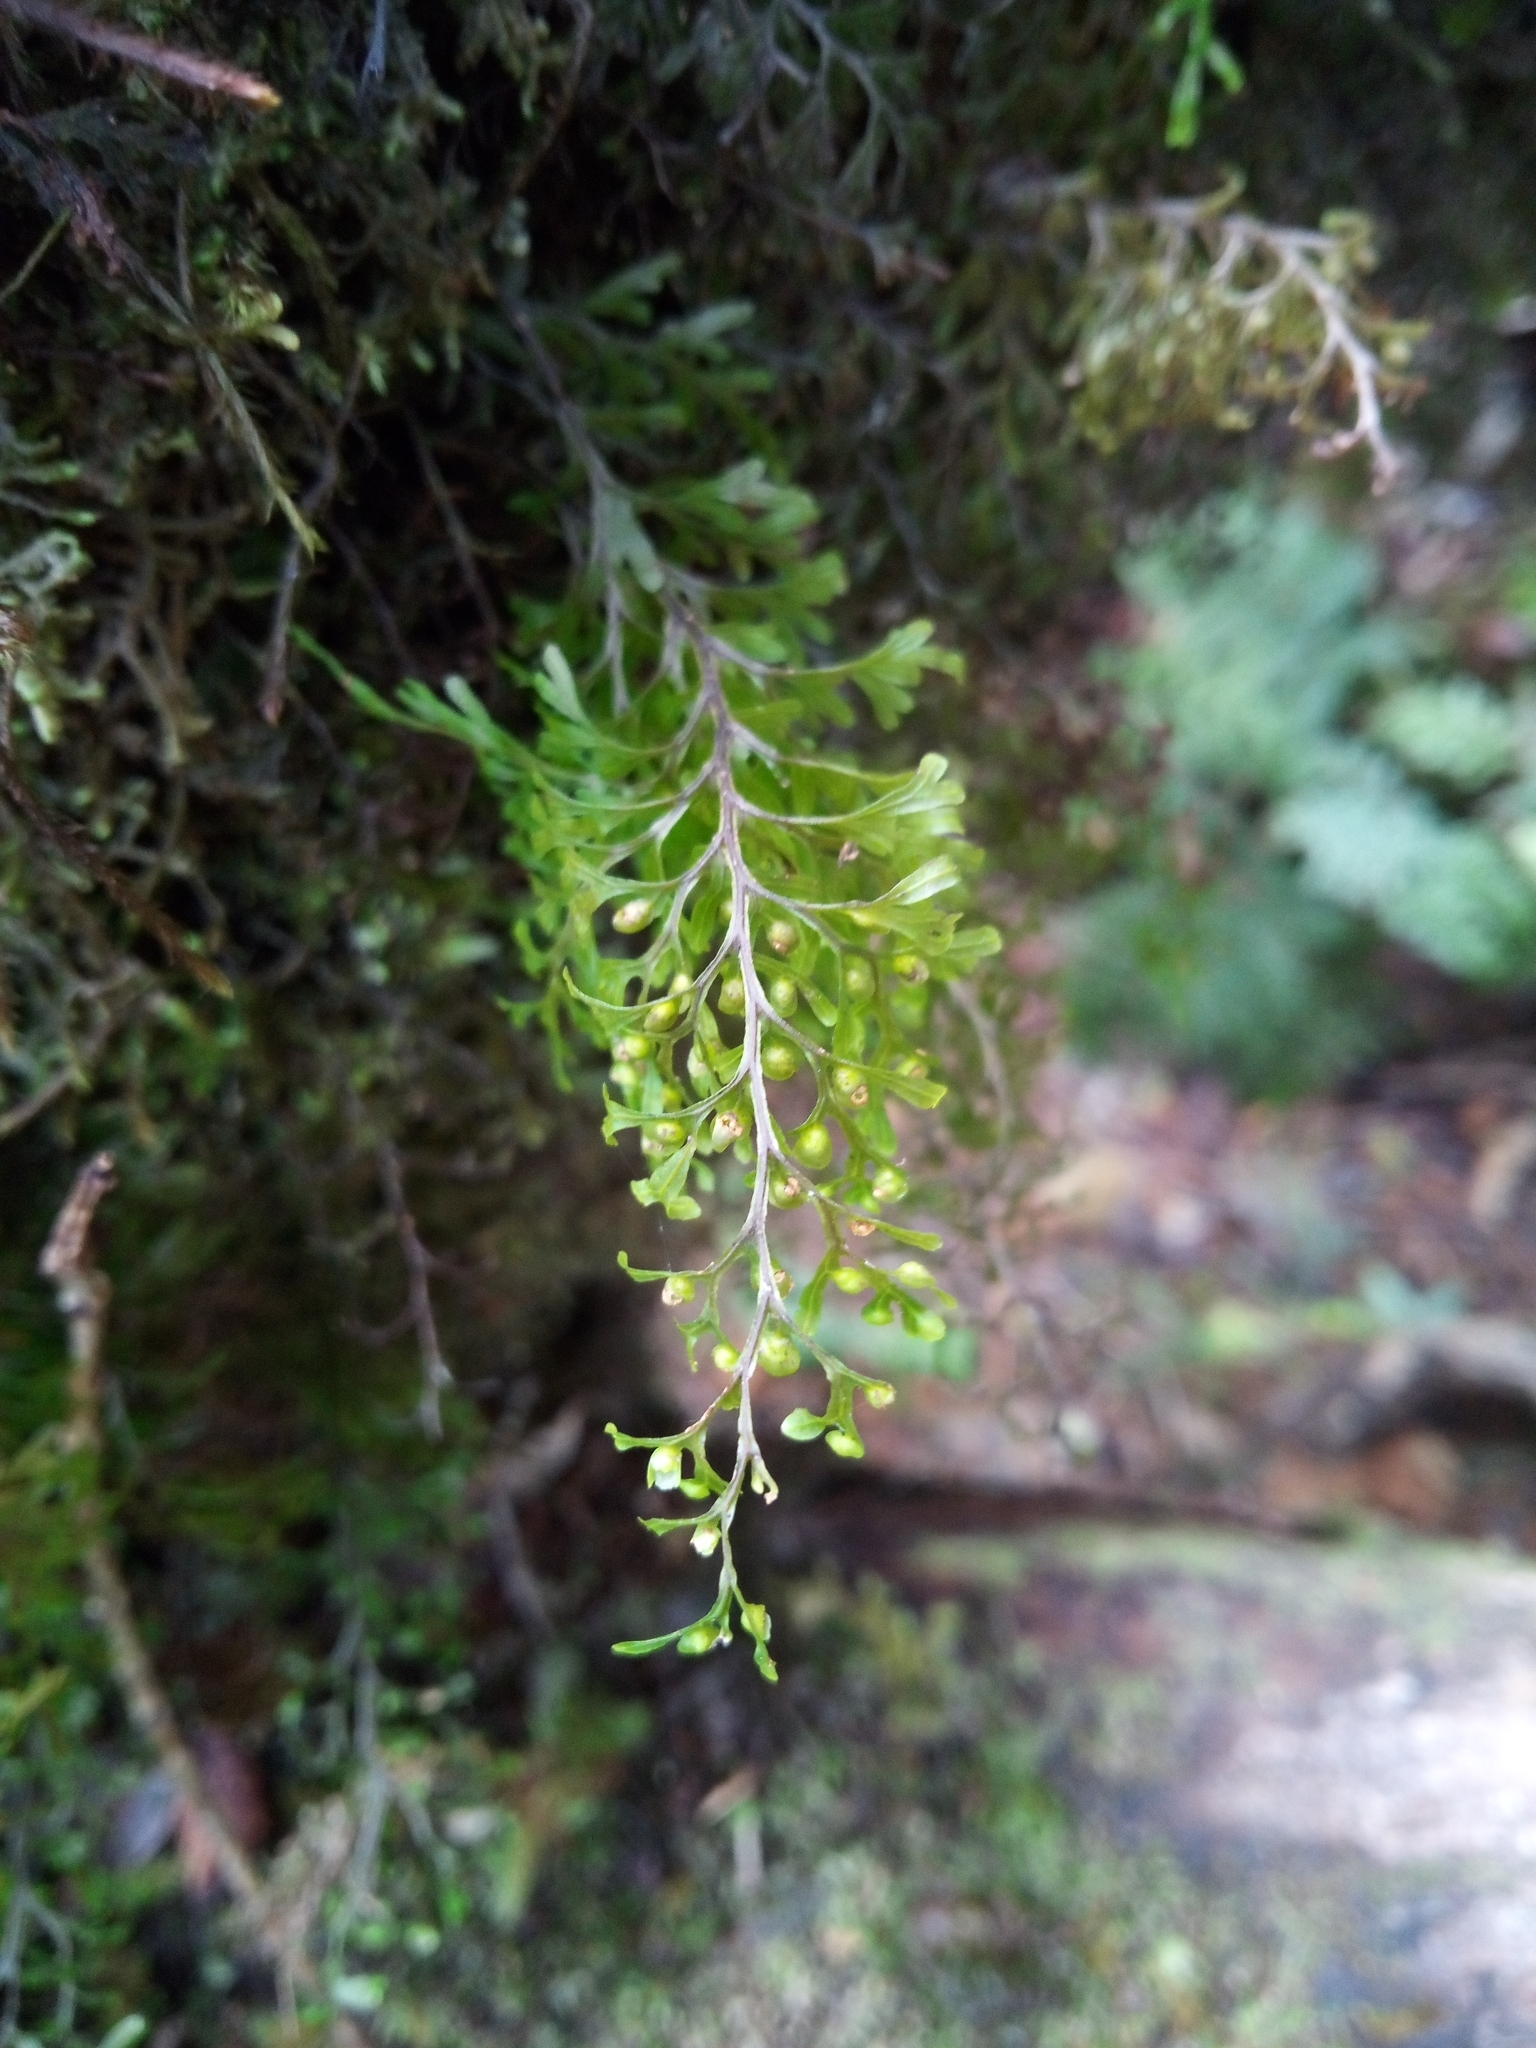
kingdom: Plantae
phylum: Tracheophyta
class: Polypodiopsida
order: Hymenophyllales
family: Hymenophyllaceae
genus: Hymenophyllum
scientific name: Hymenophyllum recurvum
